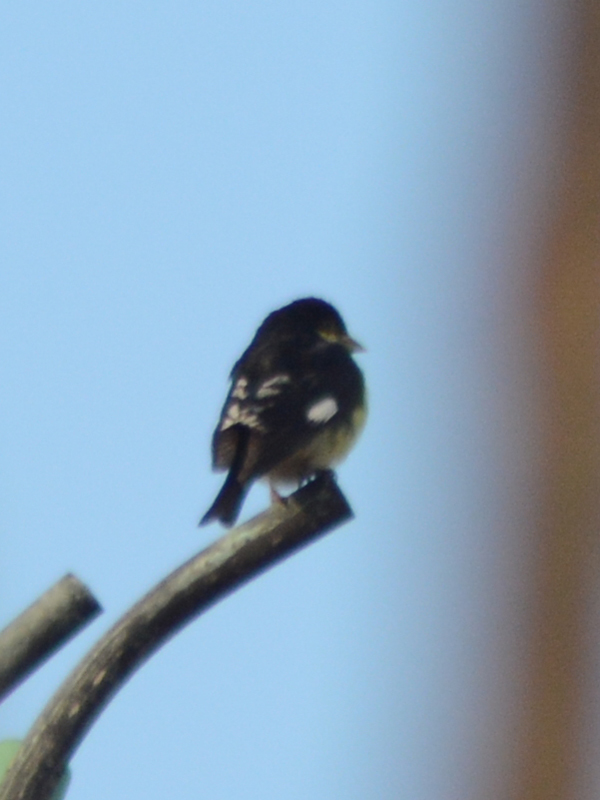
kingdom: Animalia
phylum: Chordata
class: Aves
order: Passeriformes
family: Fringillidae
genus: Spinus
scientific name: Spinus psaltria
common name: Lesser goldfinch
